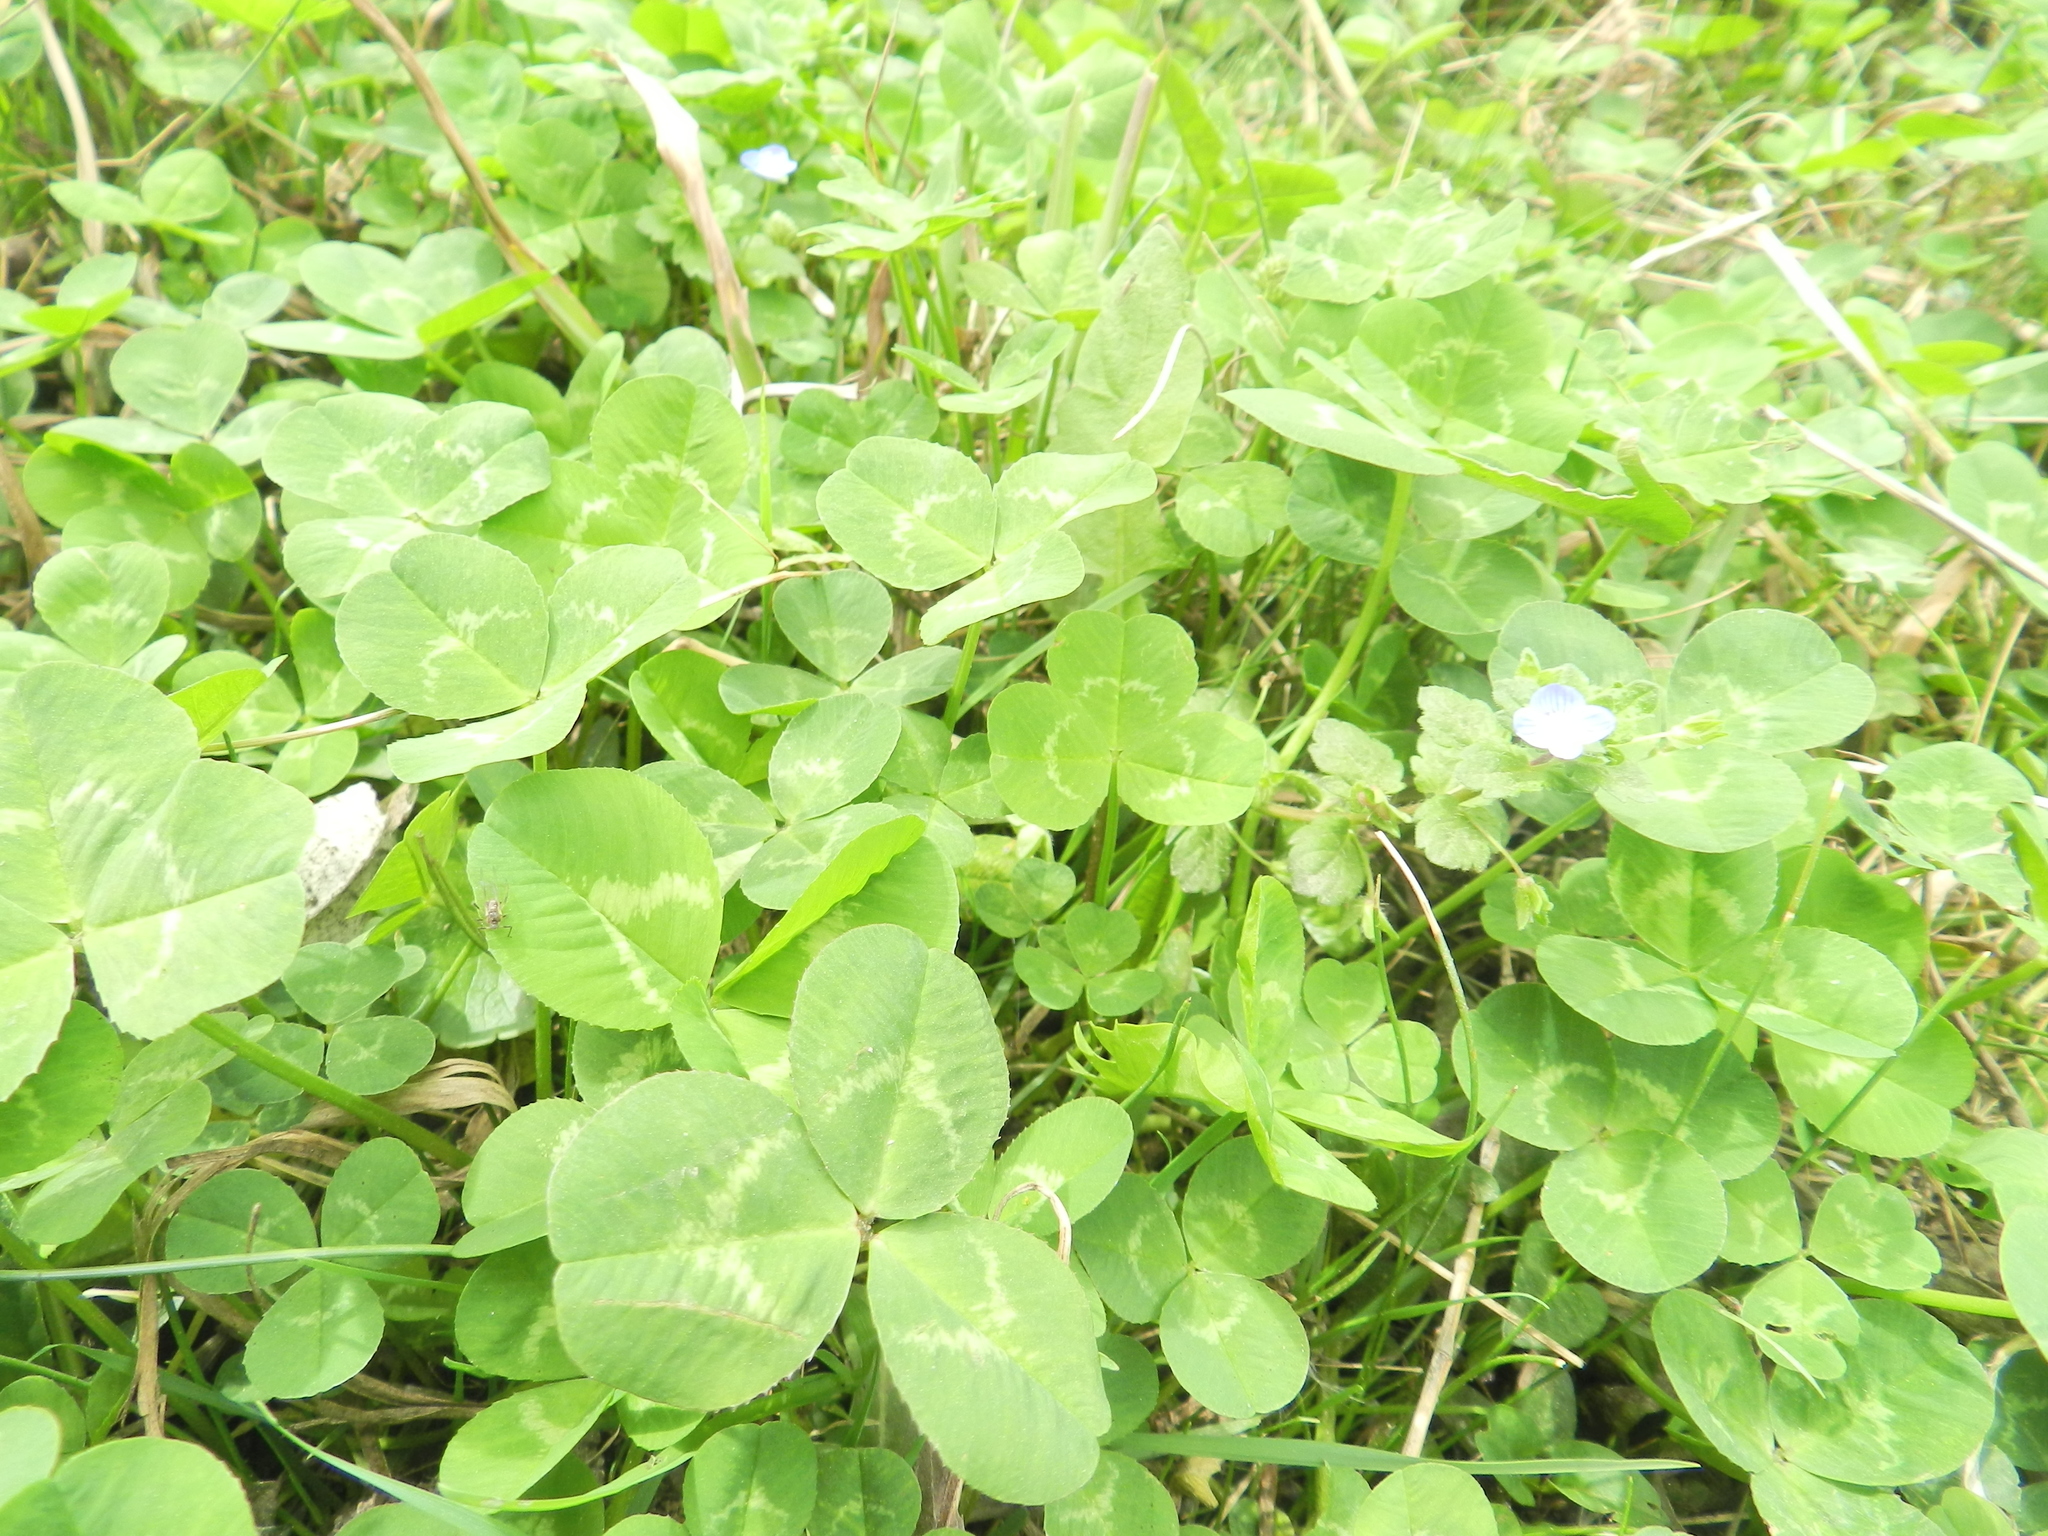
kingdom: Plantae
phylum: Tracheophyta
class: Magnoliopsida
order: Fabales
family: Fabaceae
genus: Trifolium
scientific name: Trifolium repens
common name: White clover
